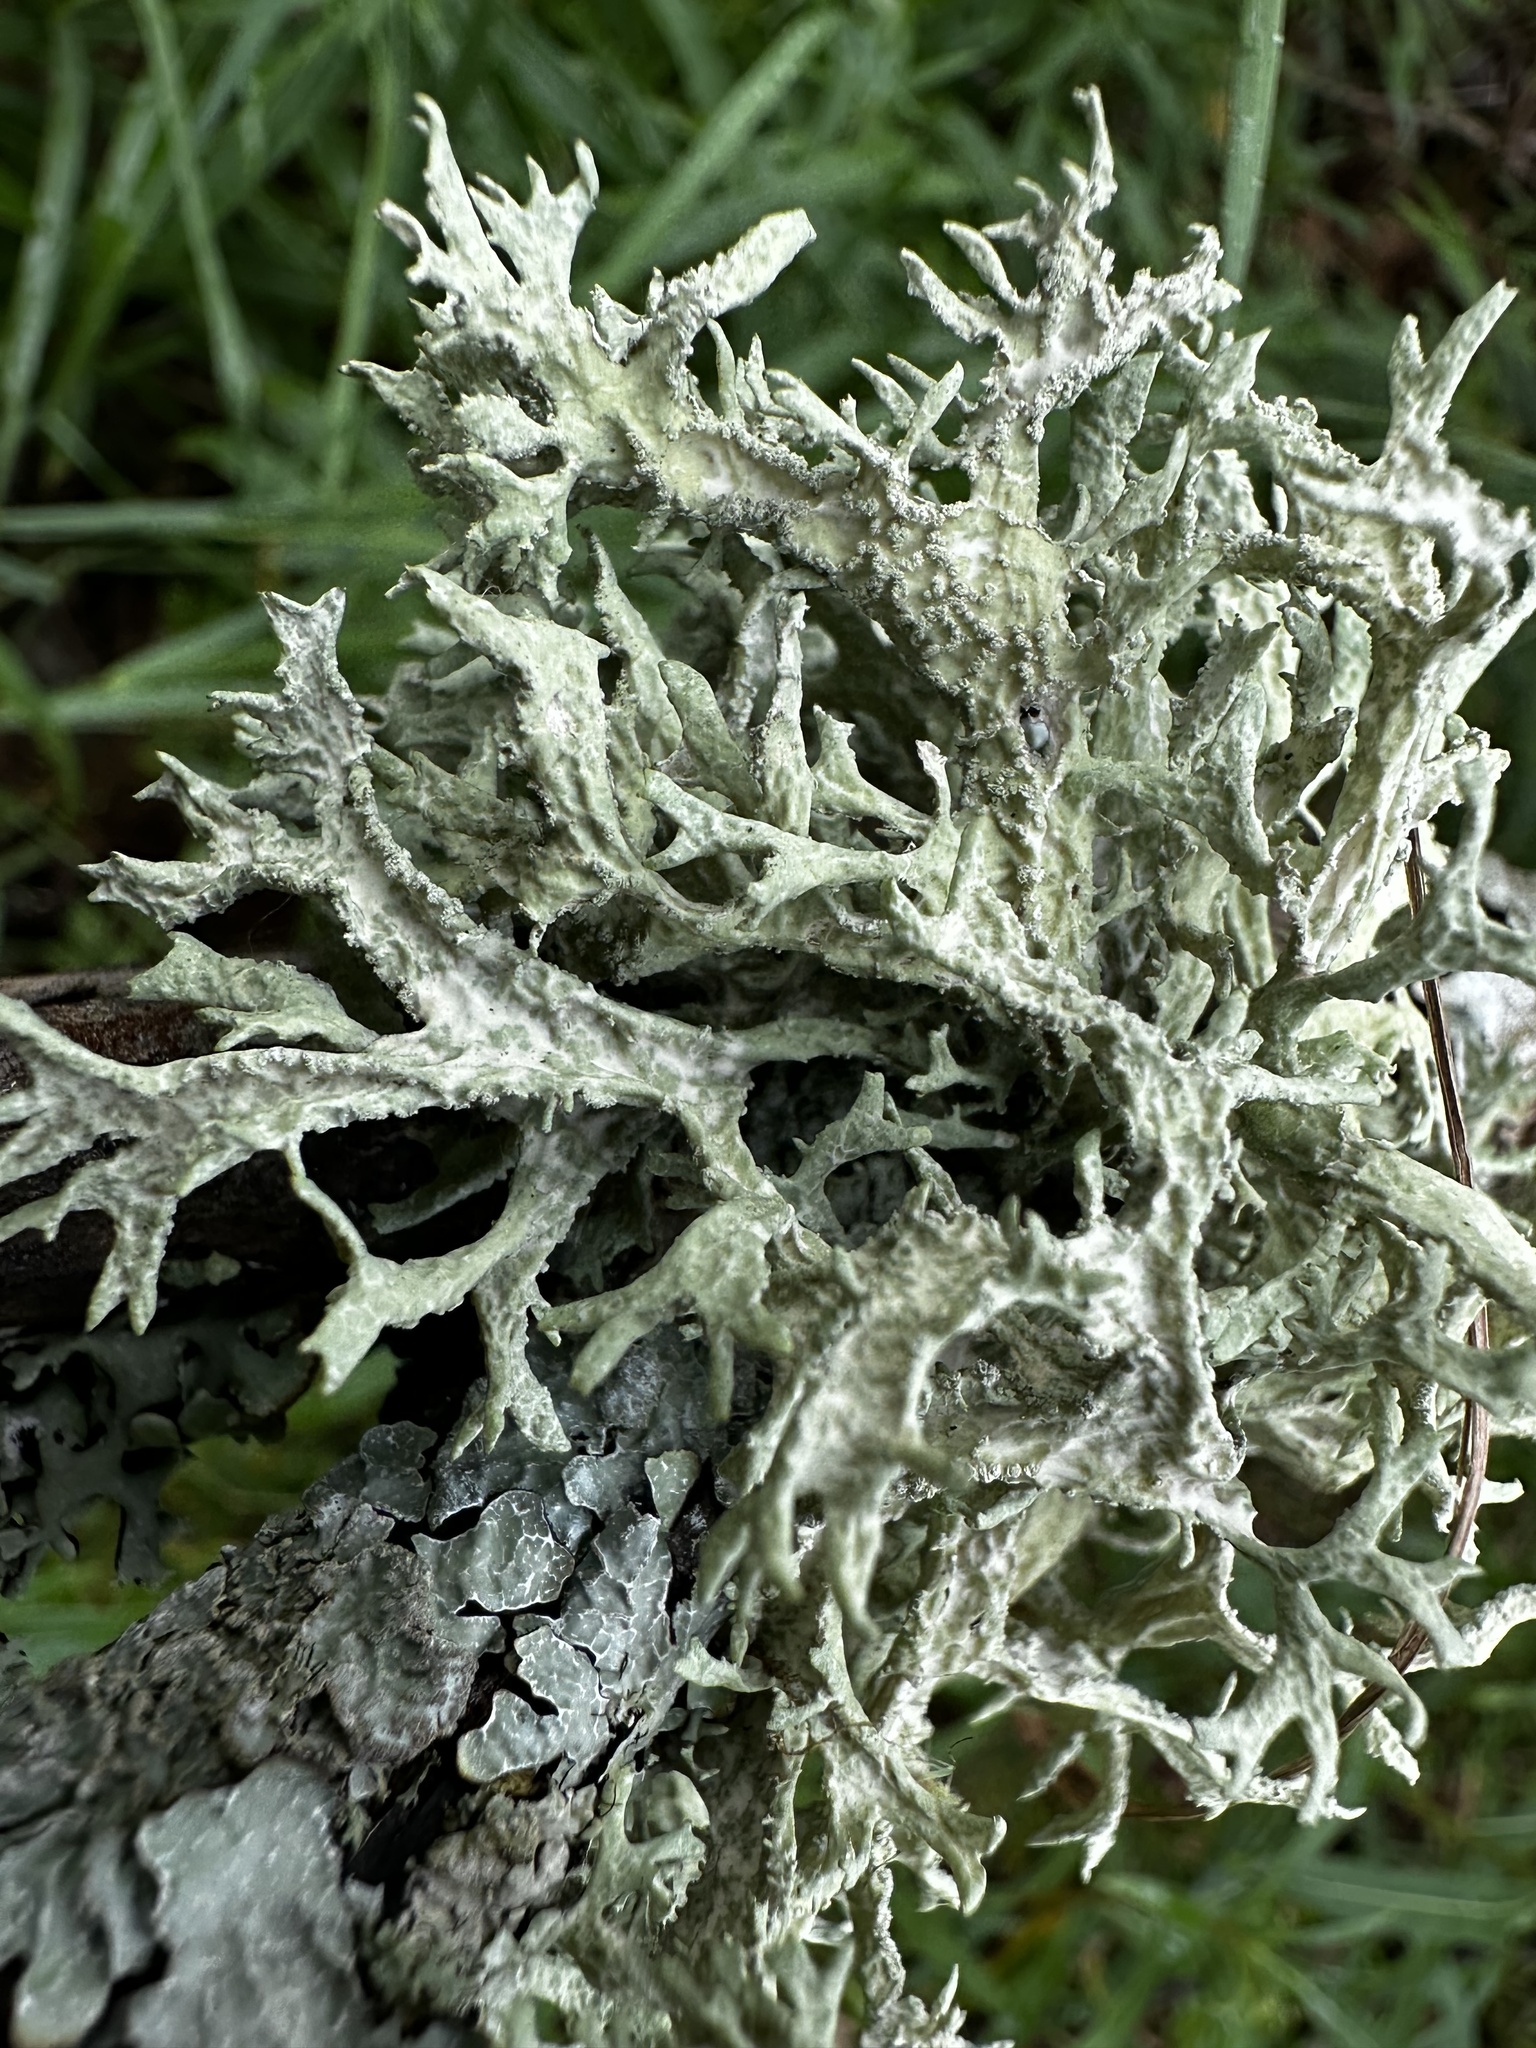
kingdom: Fungi
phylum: Ascomycota
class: Lecanoromycetes
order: Lecanorales
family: Parmeliaceae
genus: Evernia
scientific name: Evernia prunastri
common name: Oak moss
